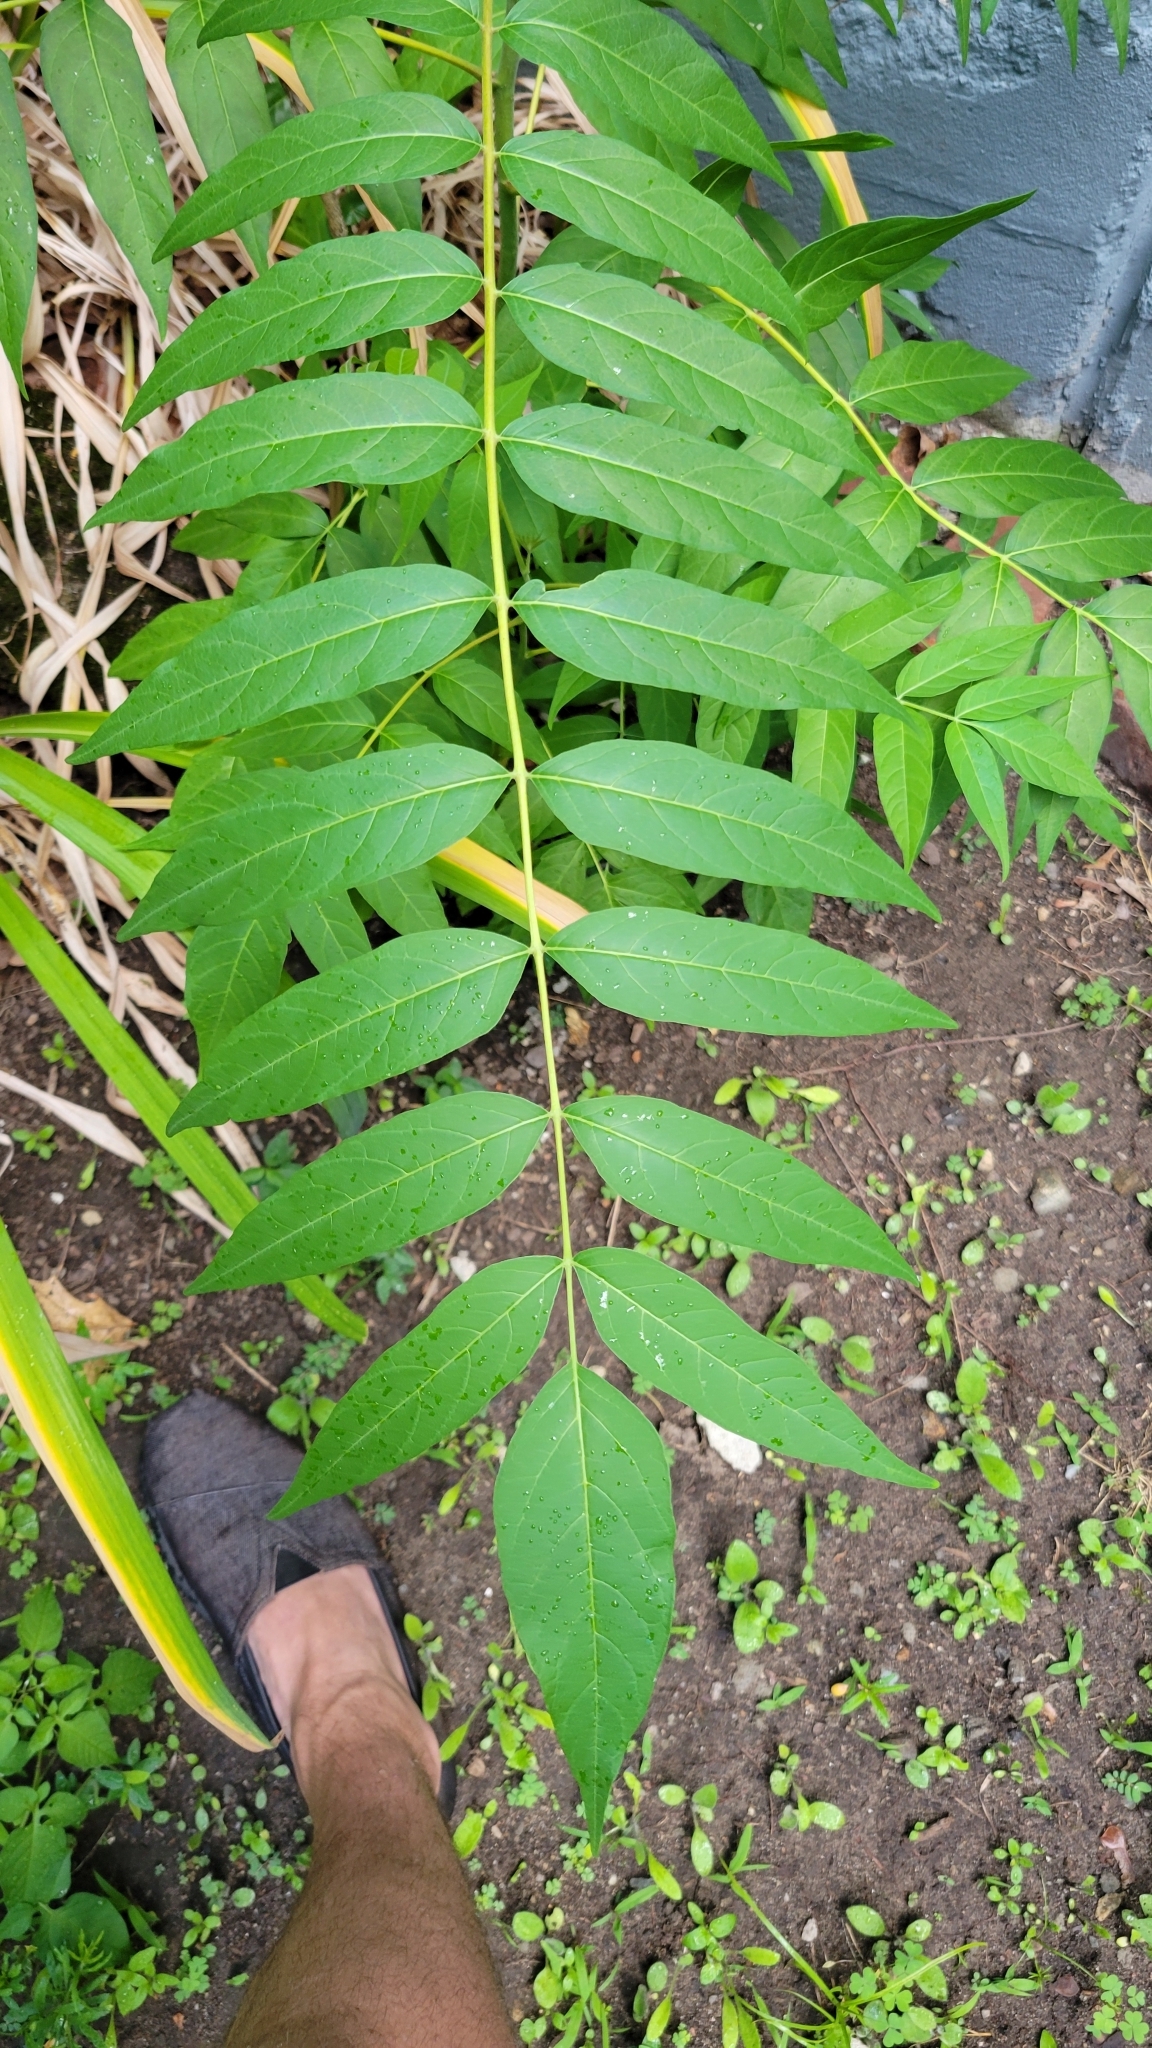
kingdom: Plantae
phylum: Tracheophyta
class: Magnoliopsida
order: Sapindales
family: Anacardiaceae
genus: Rhus
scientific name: Rhus glabra
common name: Scarlet sumac
